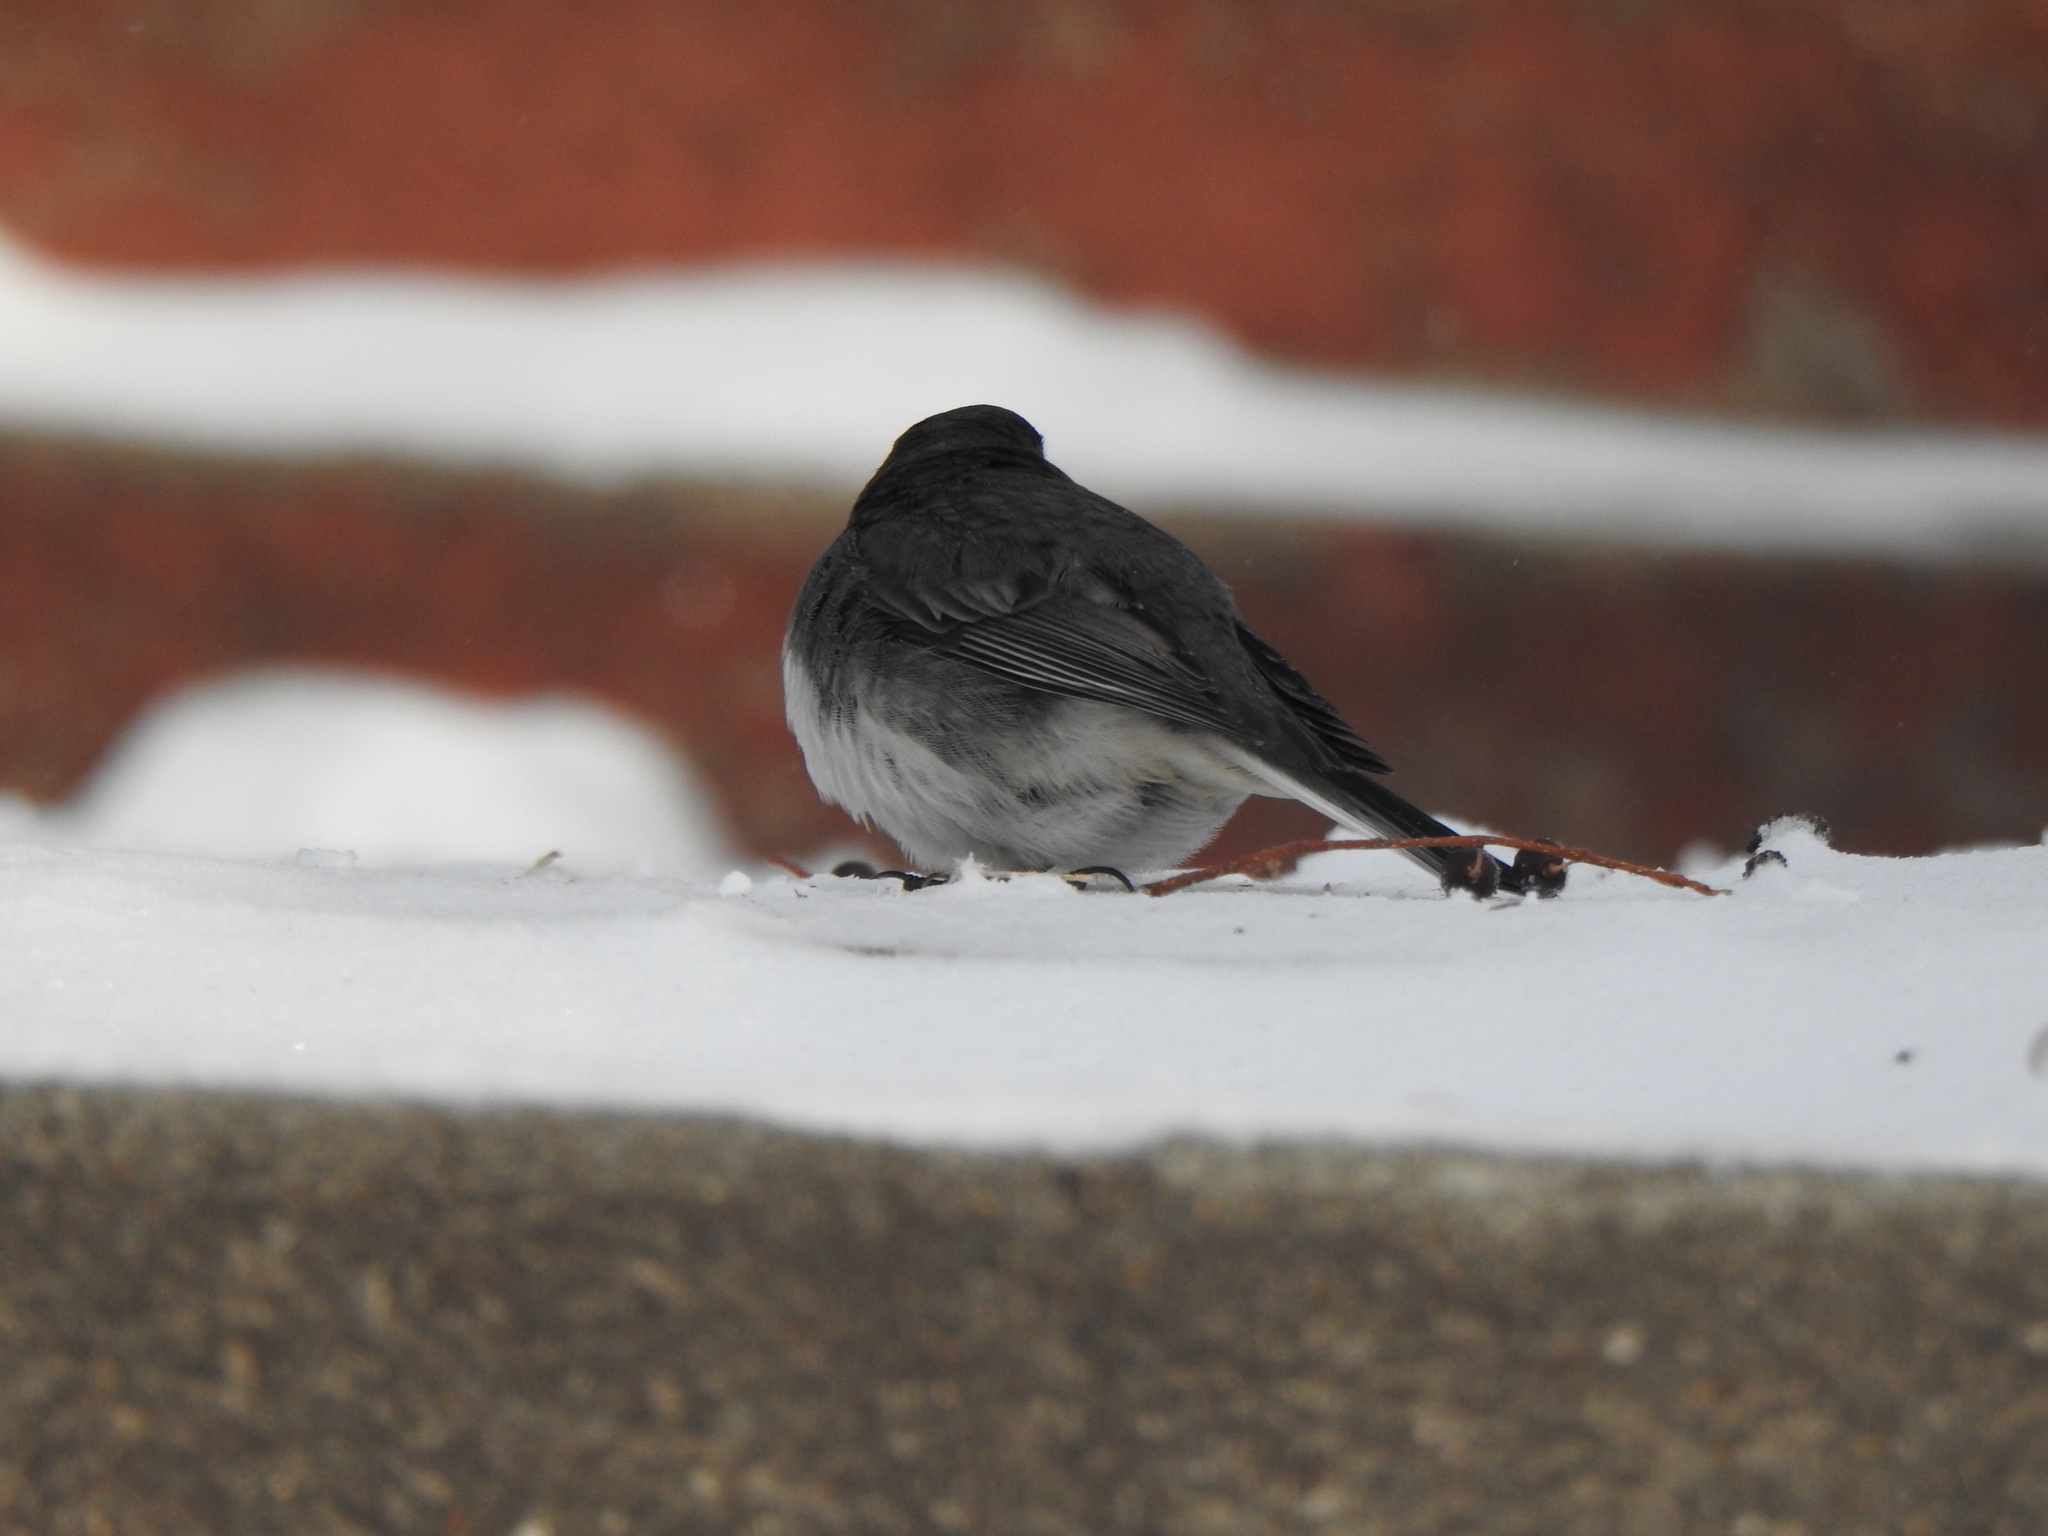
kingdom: Animalia
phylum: Chordata
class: Aves
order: Passeriformes
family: Passerellidae
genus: Junco
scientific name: Junco hyemalis
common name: Dark-eyed junco
